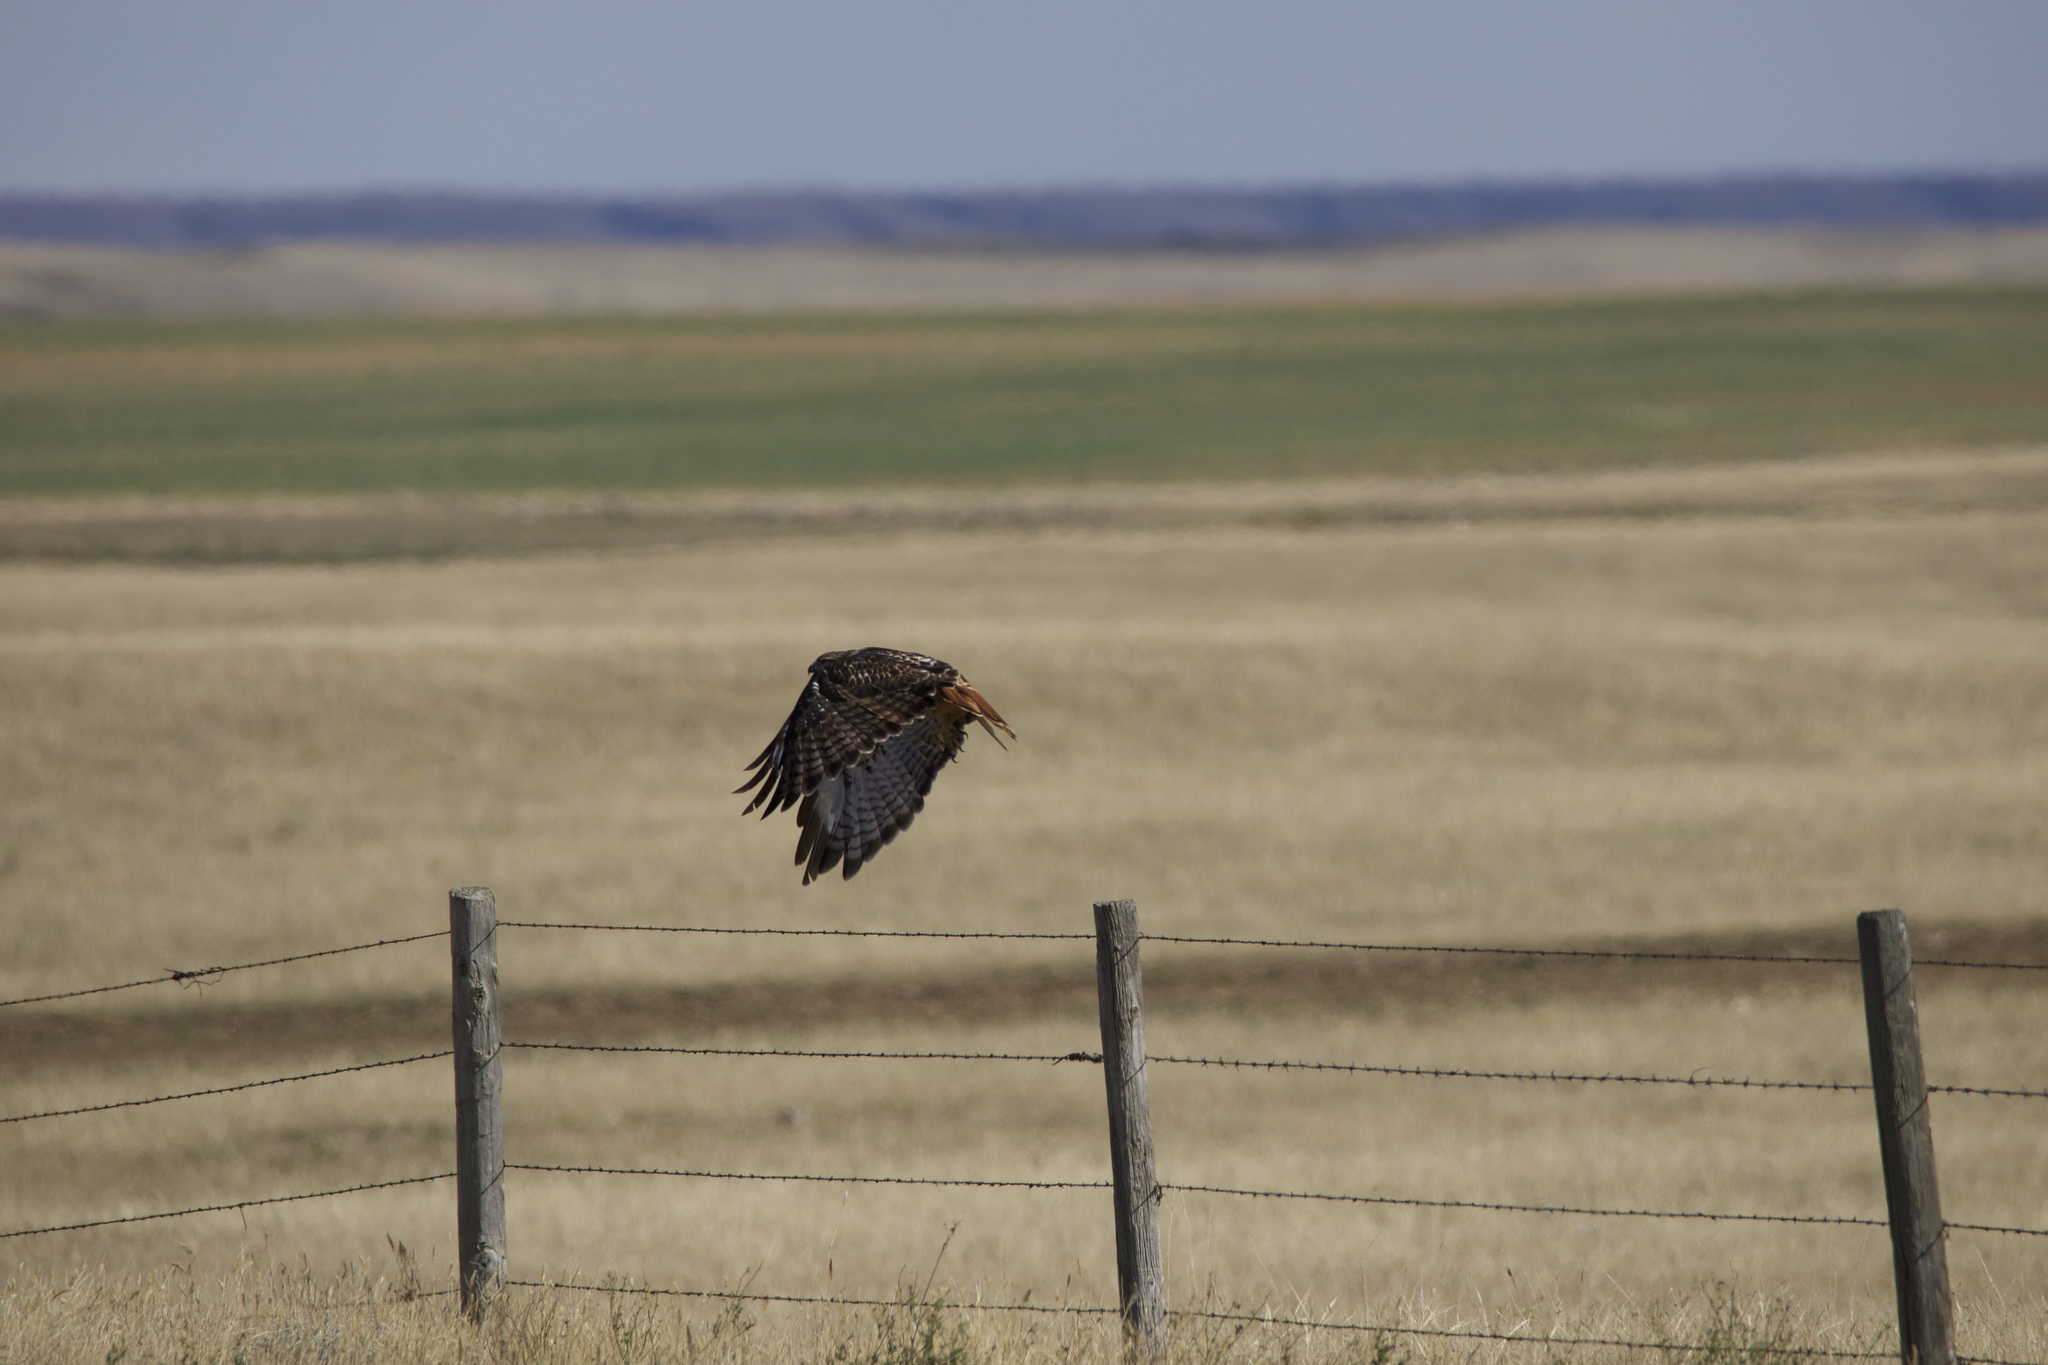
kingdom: Animalia
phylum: Chordata
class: Aves
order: Accipitriformes
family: Accipitridae
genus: Buteo
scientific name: Buteo jamaicensis
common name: Red-tailed hawk
